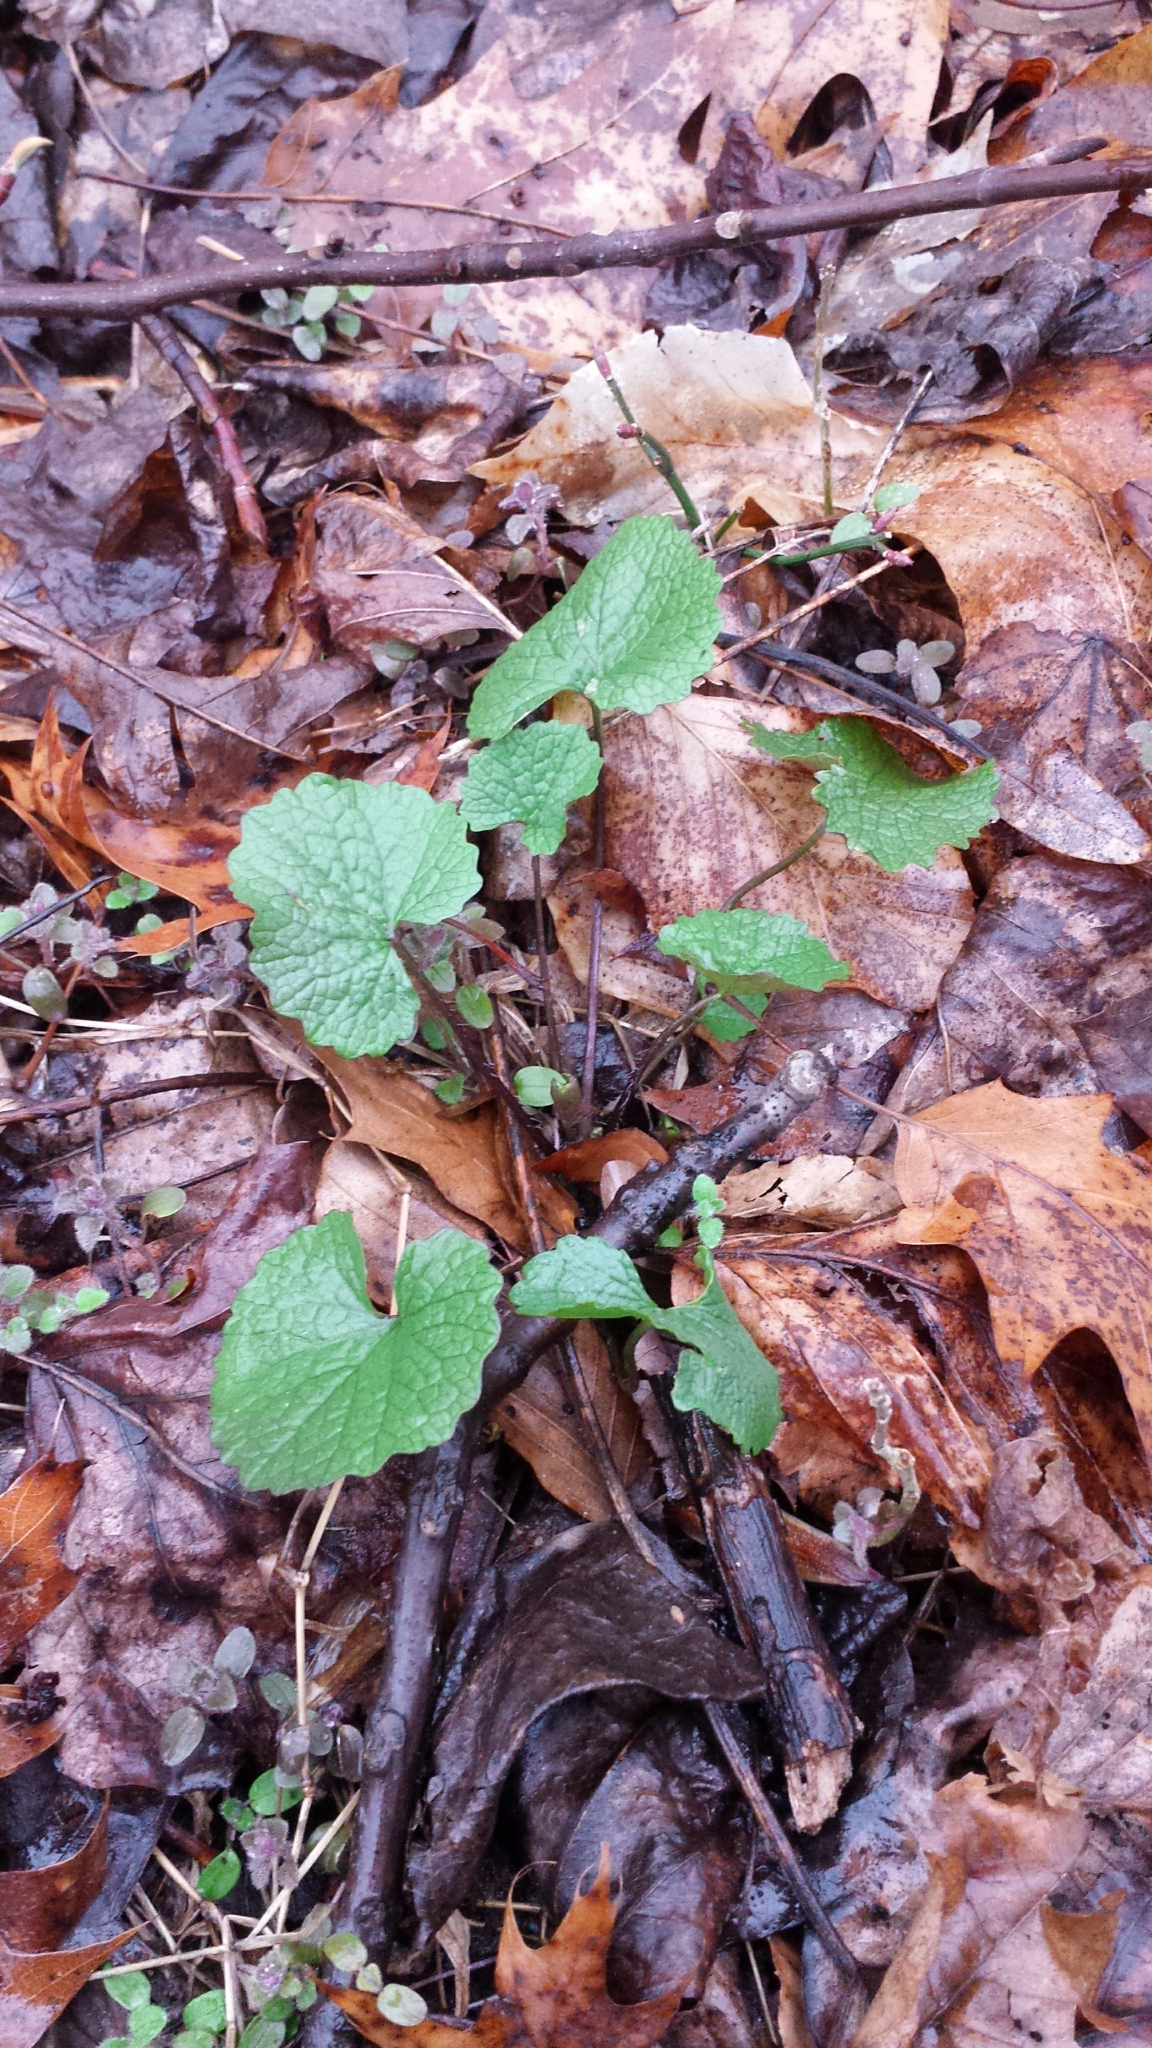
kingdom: Plantae
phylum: Tracheophyta
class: Magnoliopsida
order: Brassicales
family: Brassicaceae
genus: Alliaria
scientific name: Alliaria petiolata
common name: Garlic mustard
